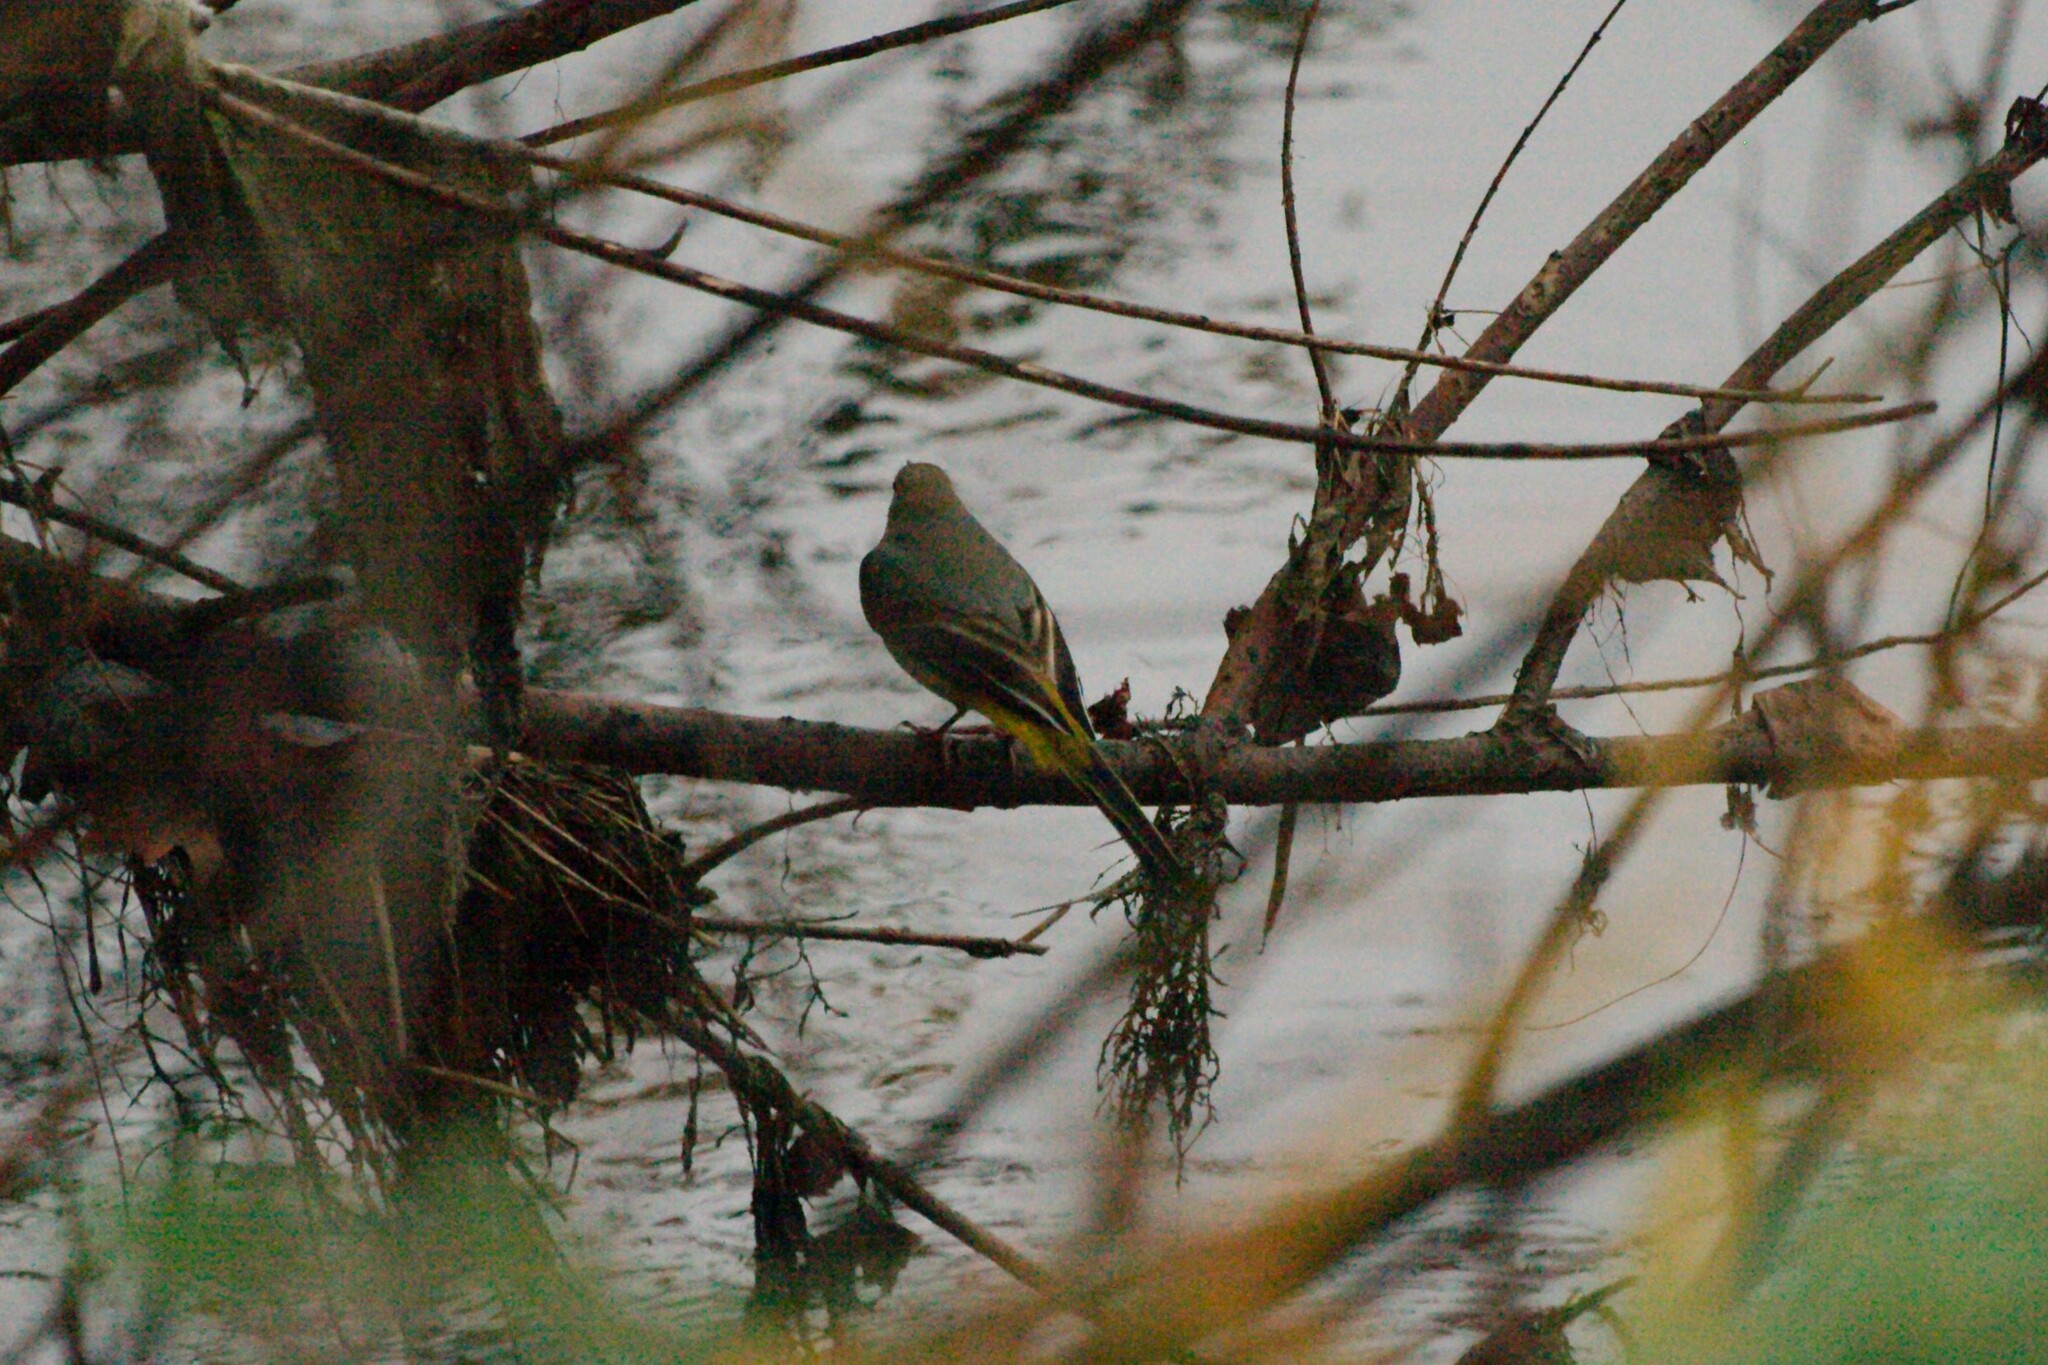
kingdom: Animalia
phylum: Chordata
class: Aves
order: Passeriformes
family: Motacillidae
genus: Motacilla
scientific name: Motacilla cinerea
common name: Grey wagtail
